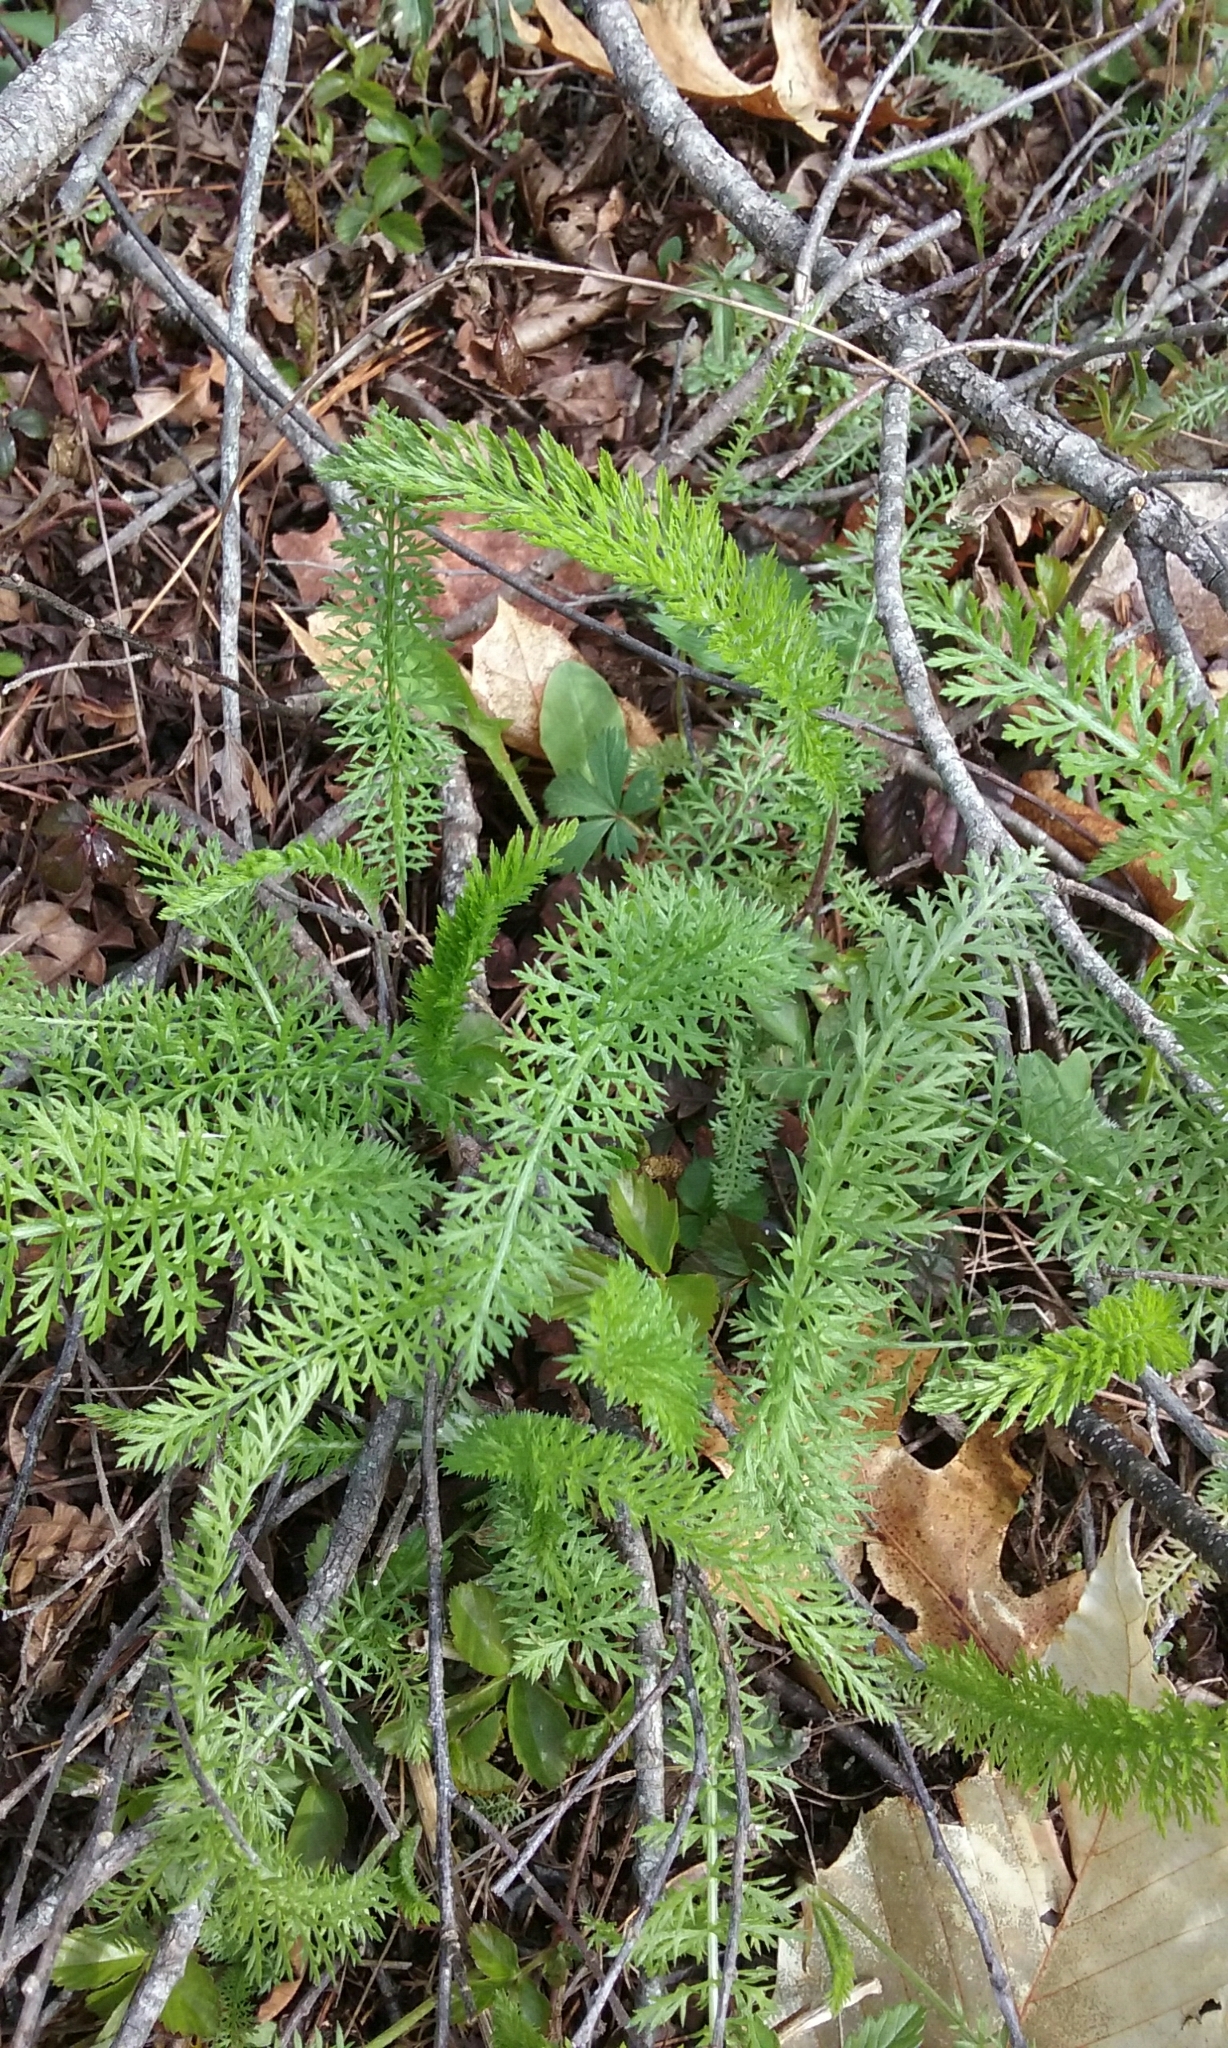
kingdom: Plantae
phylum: Tracheophyta
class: Magnoliopsida
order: Asterales
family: Asteraceae
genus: Achillea
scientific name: Achillea millefolium
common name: Yarrow
